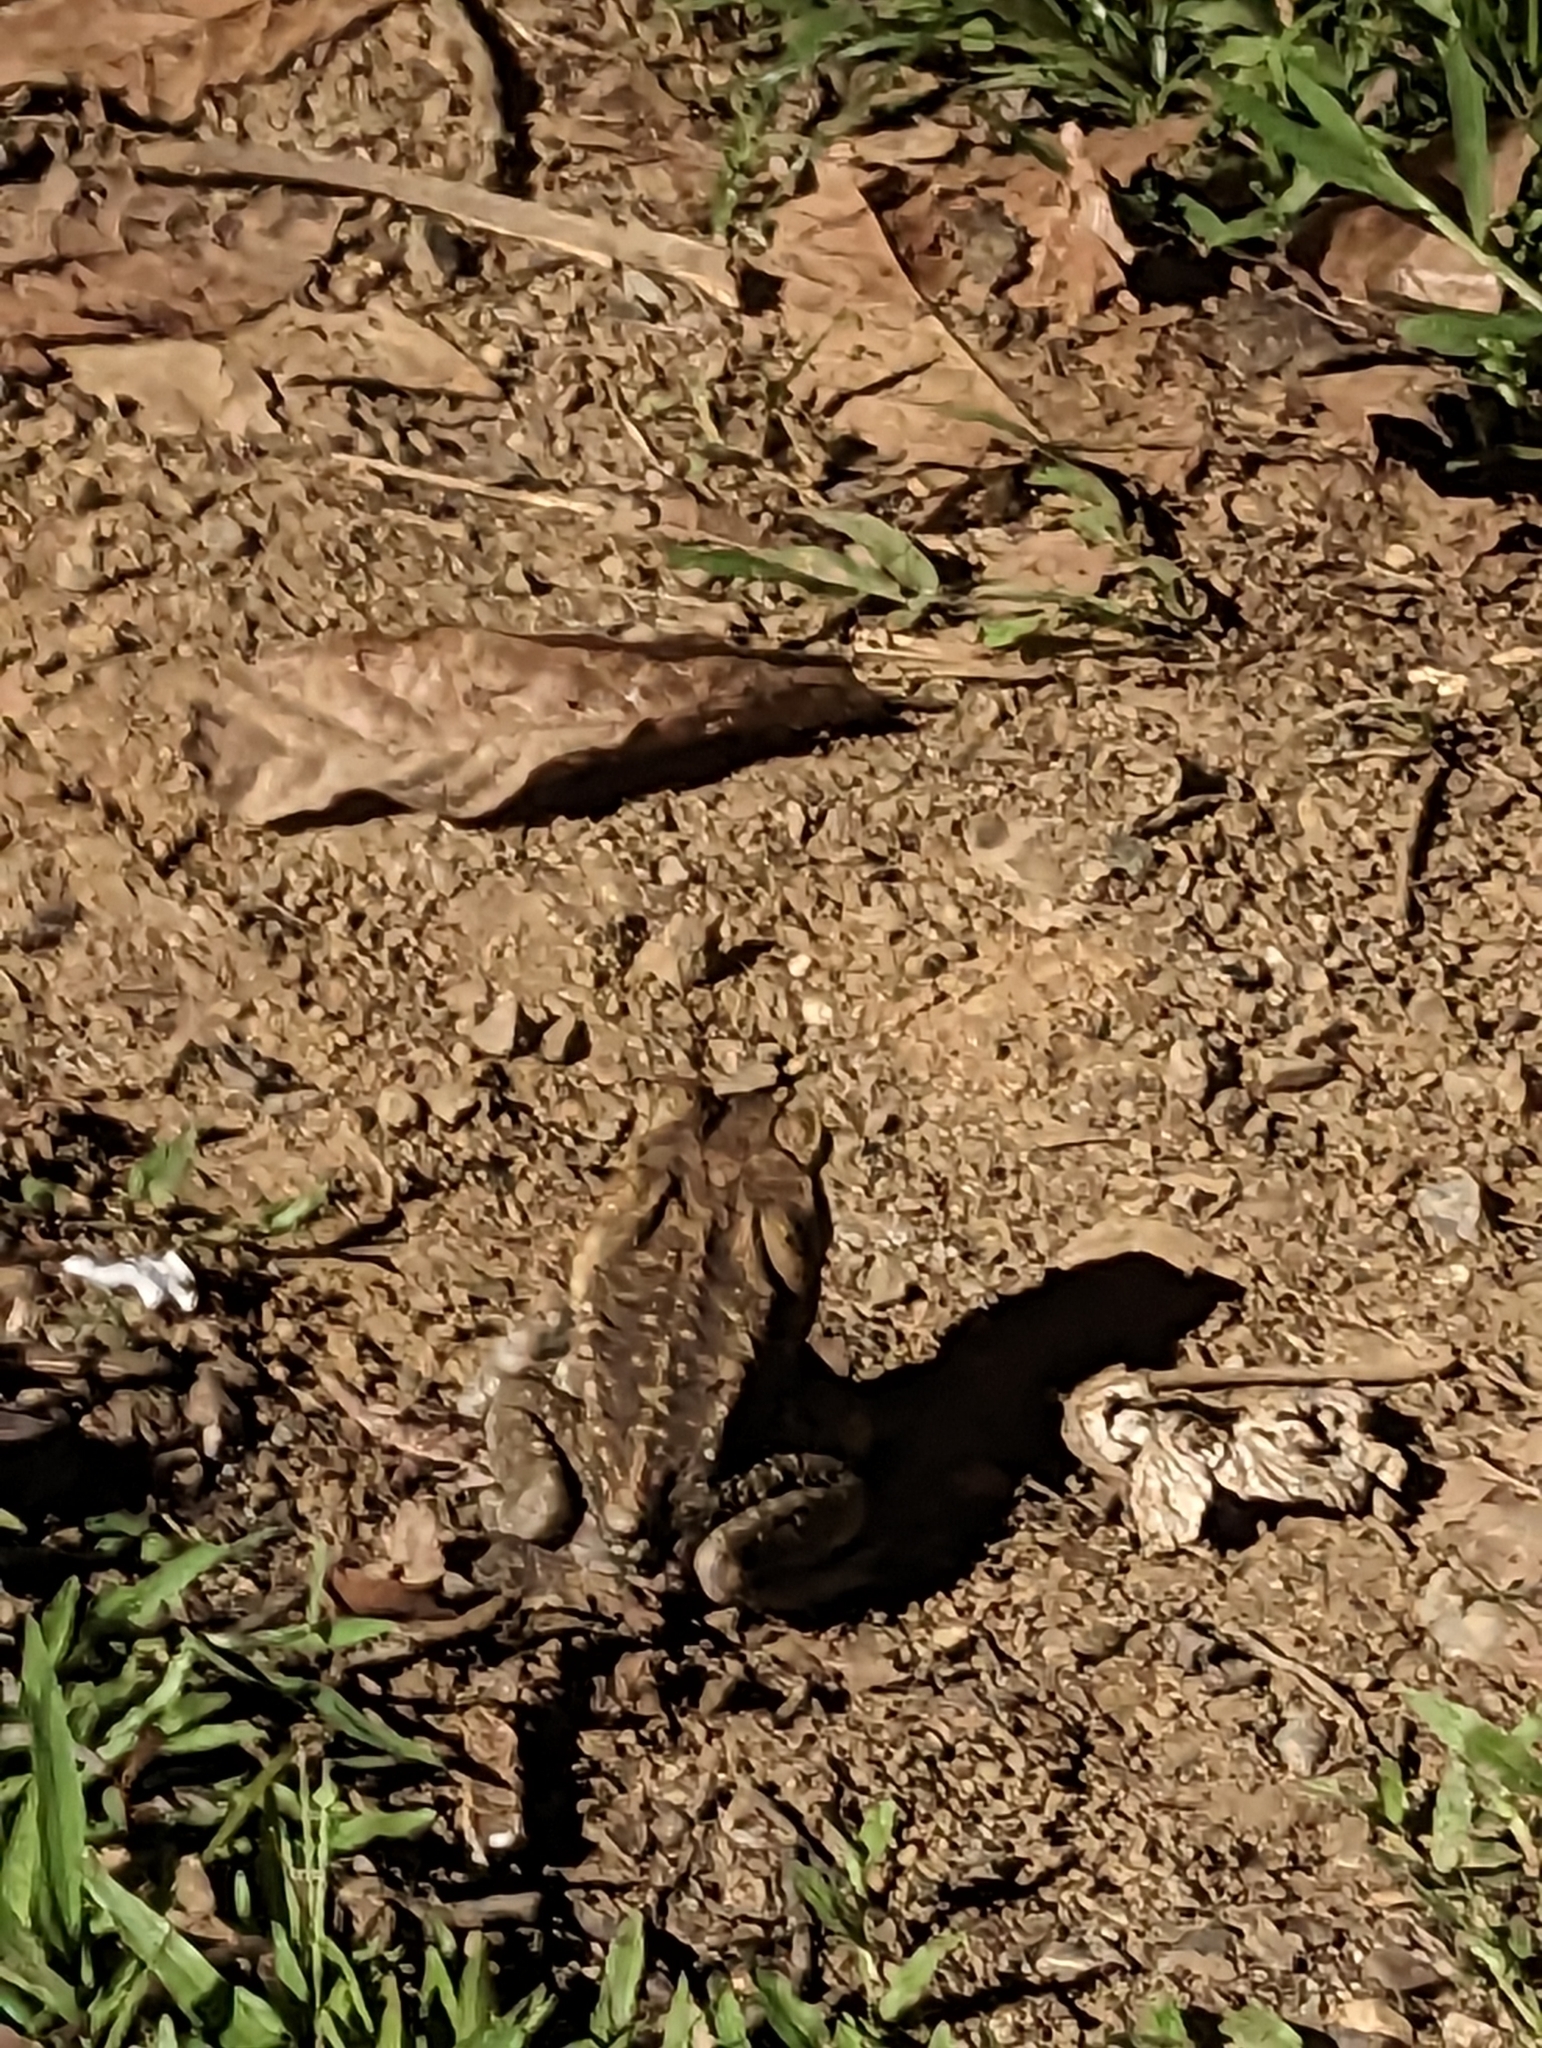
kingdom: Animalia
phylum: Chordata
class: Amphibia
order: Anura
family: Bufonidae
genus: Rhinella
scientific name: Rhinella horribilis
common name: Mesoamerican cane toad
